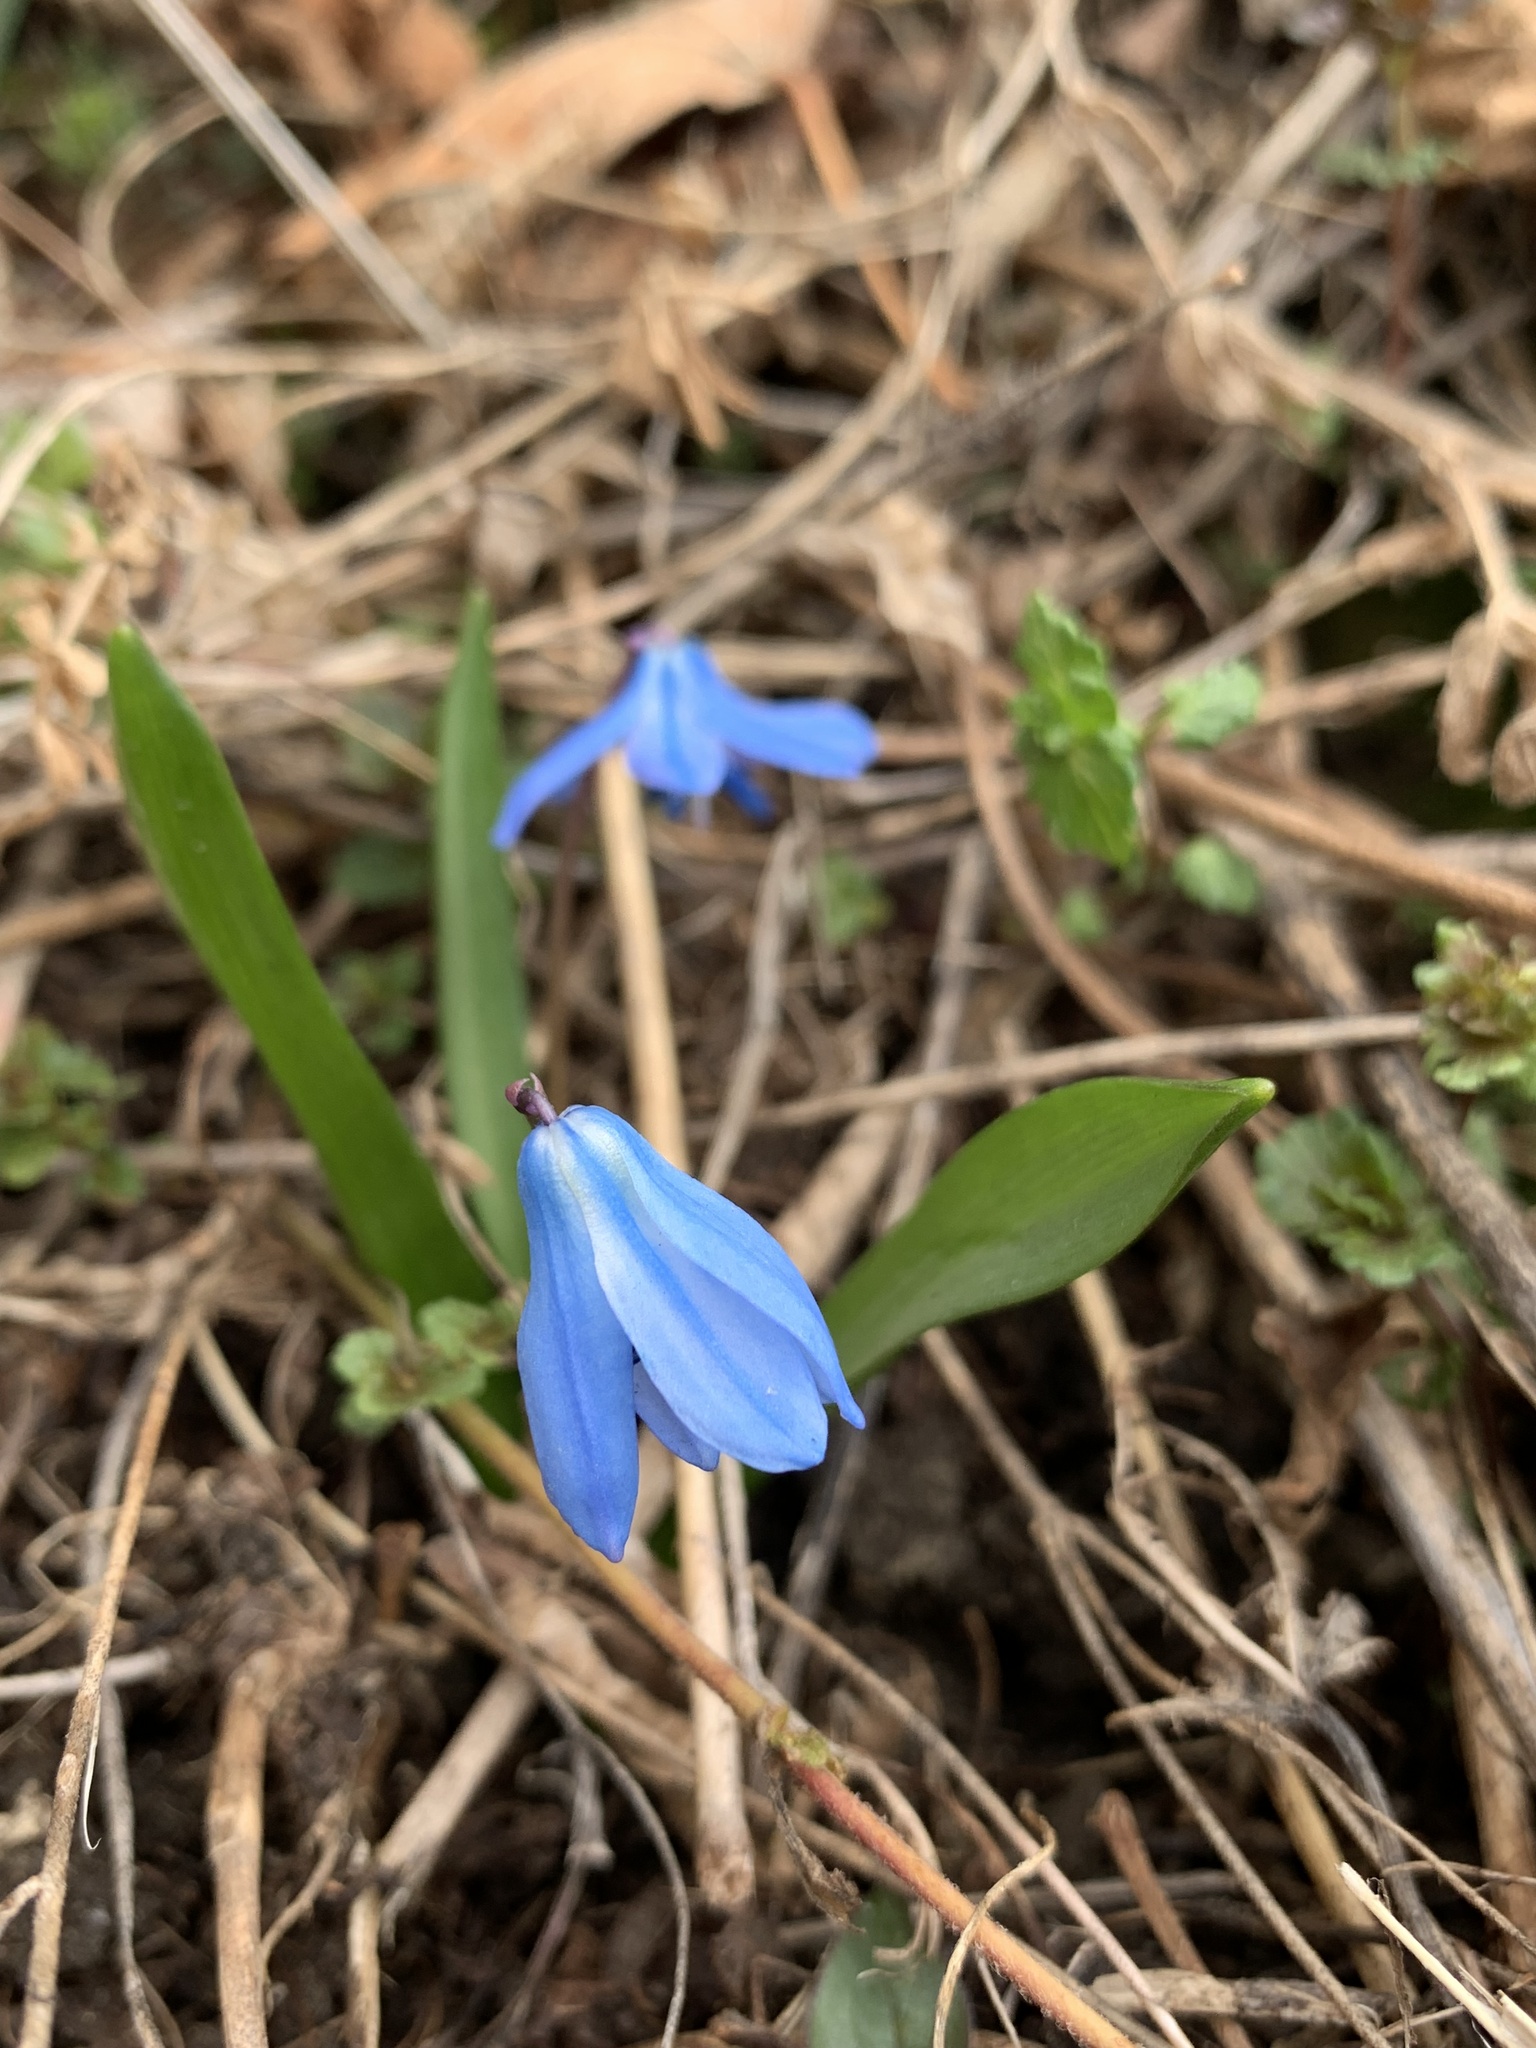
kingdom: Plantae
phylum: Tracheophyta
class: Liliopsida
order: Asparagales
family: Asparagaceae
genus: Scilla
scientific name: Scilla siberica
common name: Siberian squill
